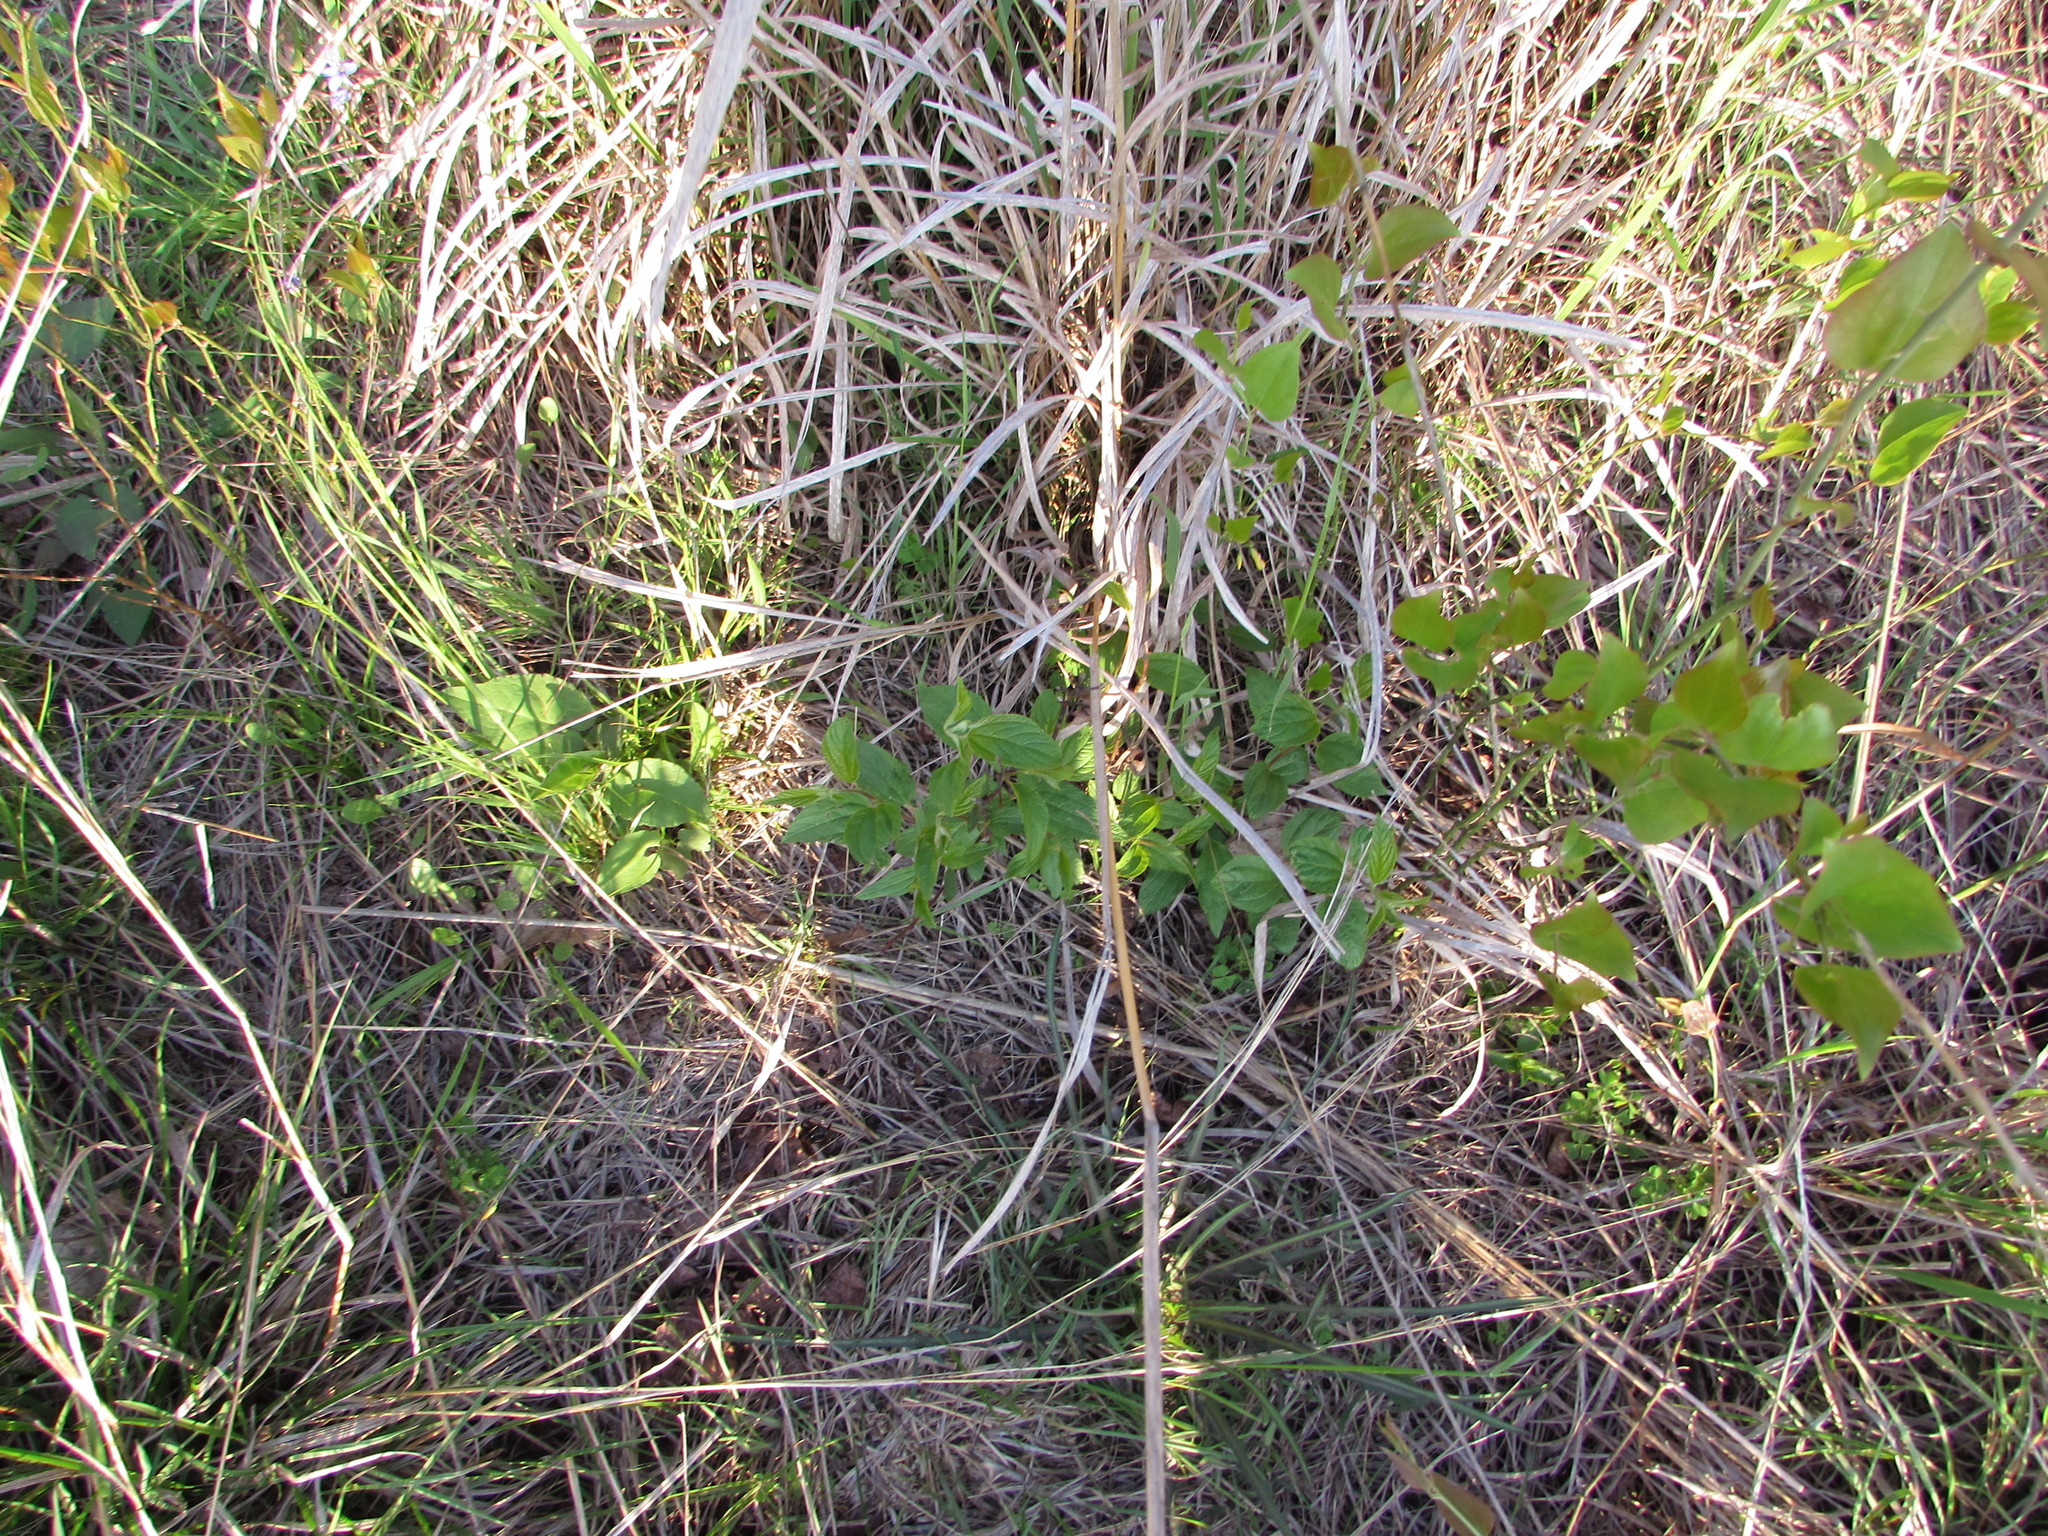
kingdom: Plantae
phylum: Tracheophyta
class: Magnoliopsida
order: Rosales
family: Rhamnaceae
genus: Ceanothus
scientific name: Ceanothus americanus
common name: Redroot
